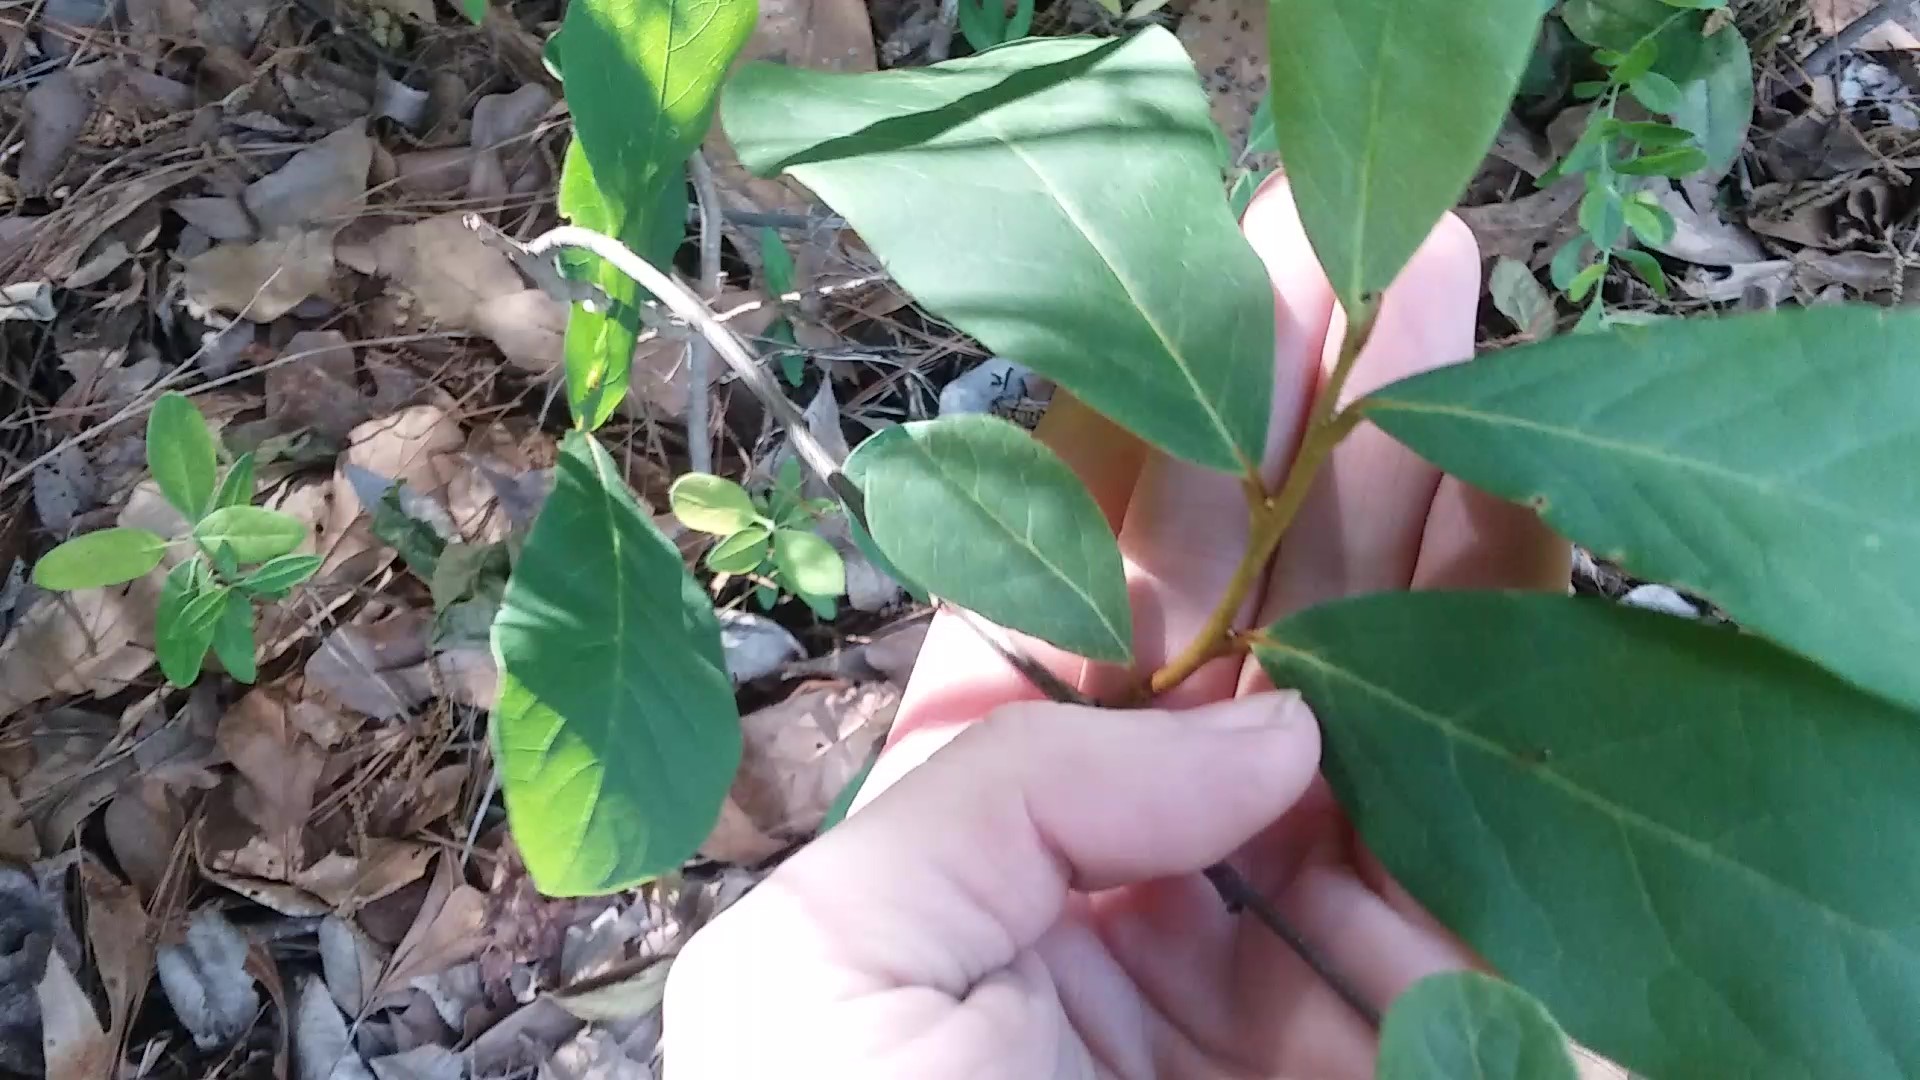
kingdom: Plantae
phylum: Tracheophyta
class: Magnoliopsida
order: Magnoliales
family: Annonaceae
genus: Asimina
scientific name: Asimina parviflora
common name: Dwarf pawpaw
